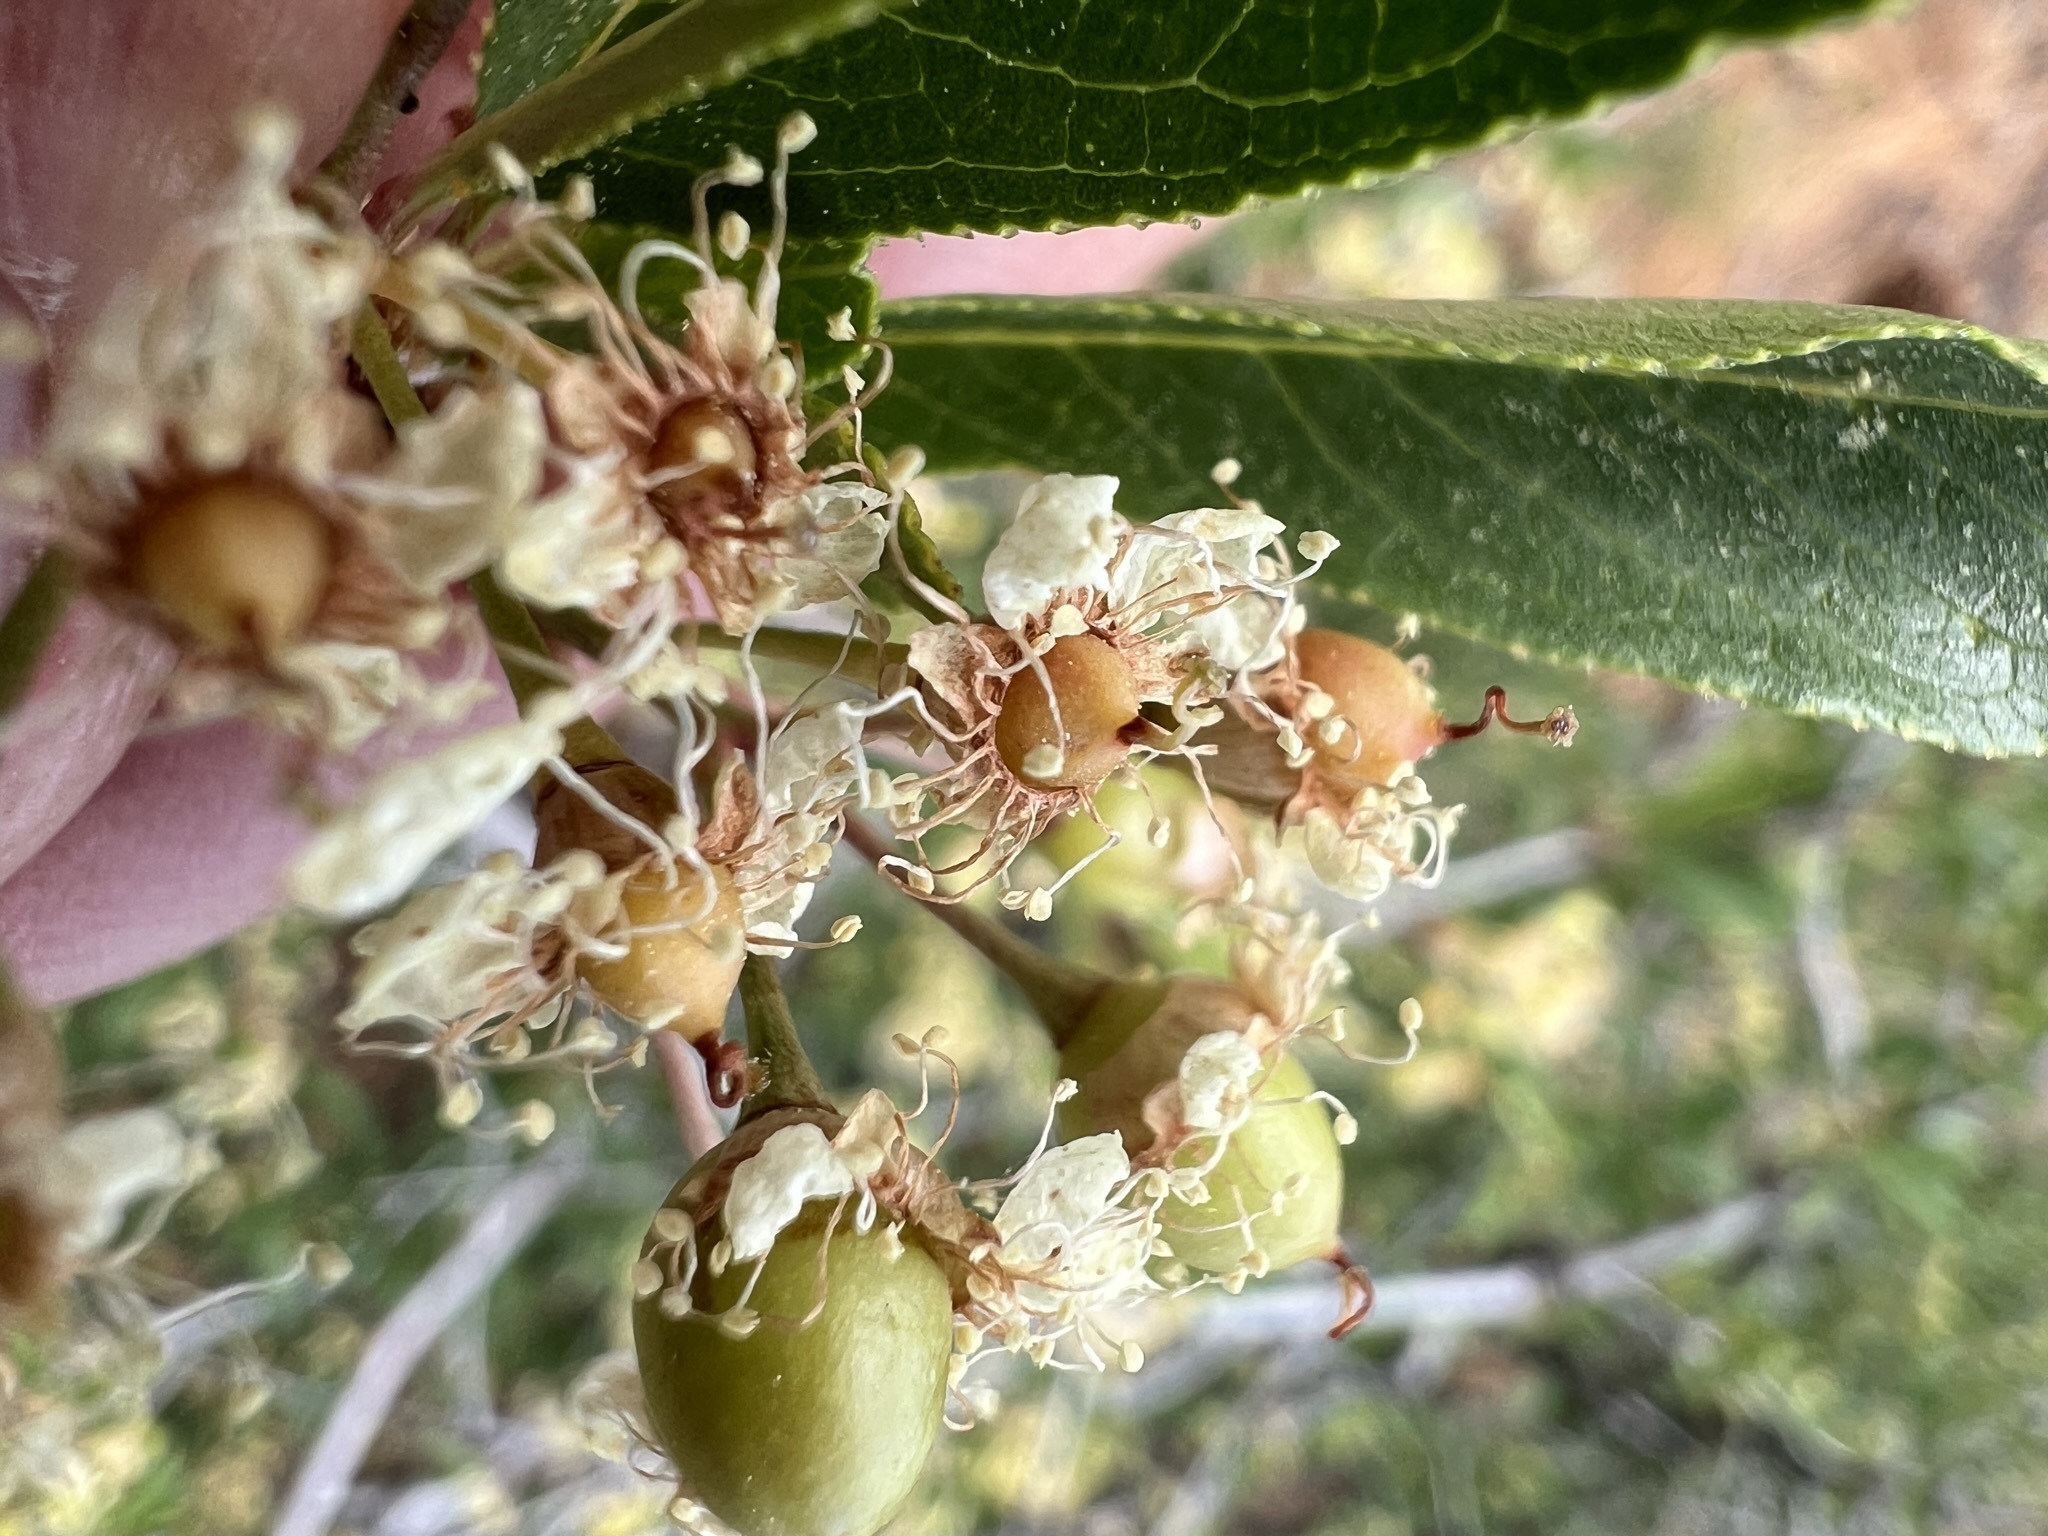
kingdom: Plantae
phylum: Tracheophyta
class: Magnoliopsida
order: Rosales
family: Rosaceae
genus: Prunus
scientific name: Prunus emarginata
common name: Bitter cherry
